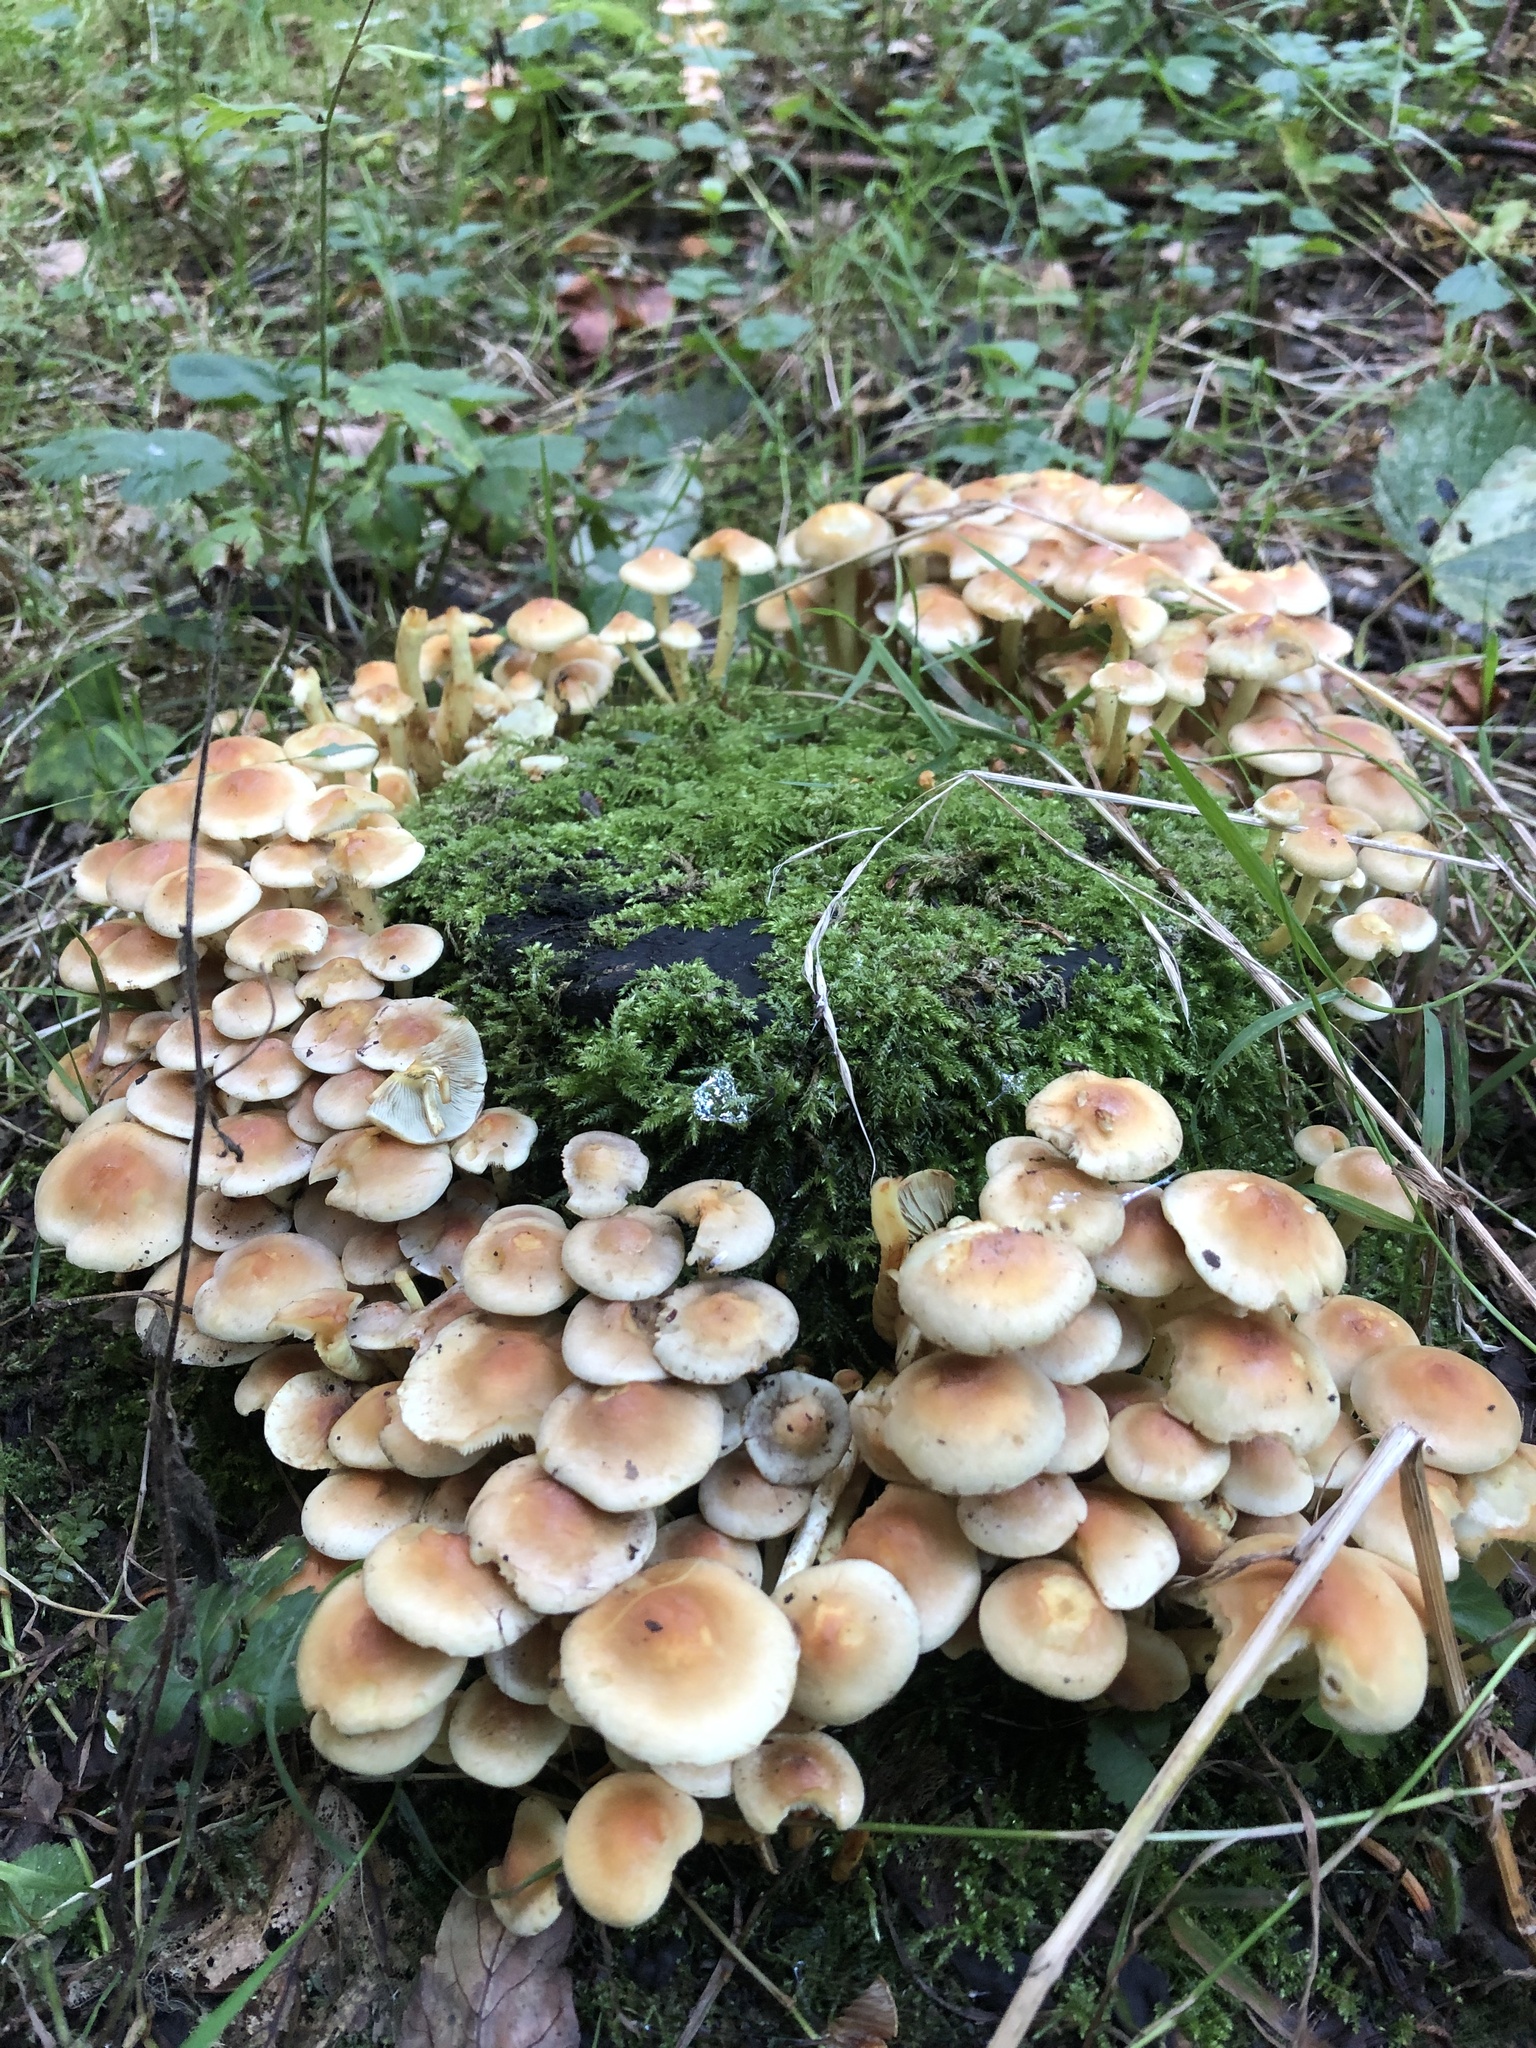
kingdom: Fungi
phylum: Basidiomycota
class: Agaricomycetes
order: Agaricales
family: Strophariaceae
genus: Hypholoma
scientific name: Hypholoma fasciculare
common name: Sulphur tuft
